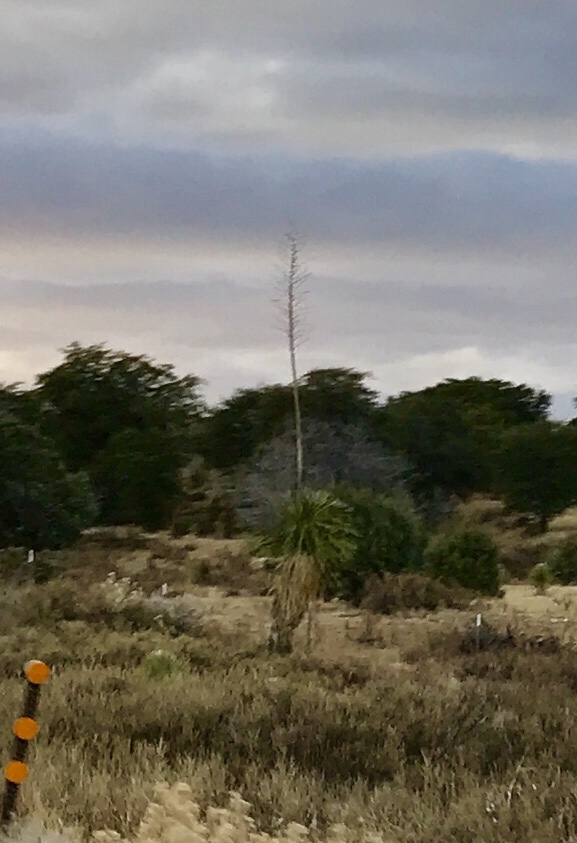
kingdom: Plantae
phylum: Tracheophyta
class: Liliopsida
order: Asparagales
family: Asparagaceae
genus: Yucca
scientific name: Yucca elata
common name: Palmella
